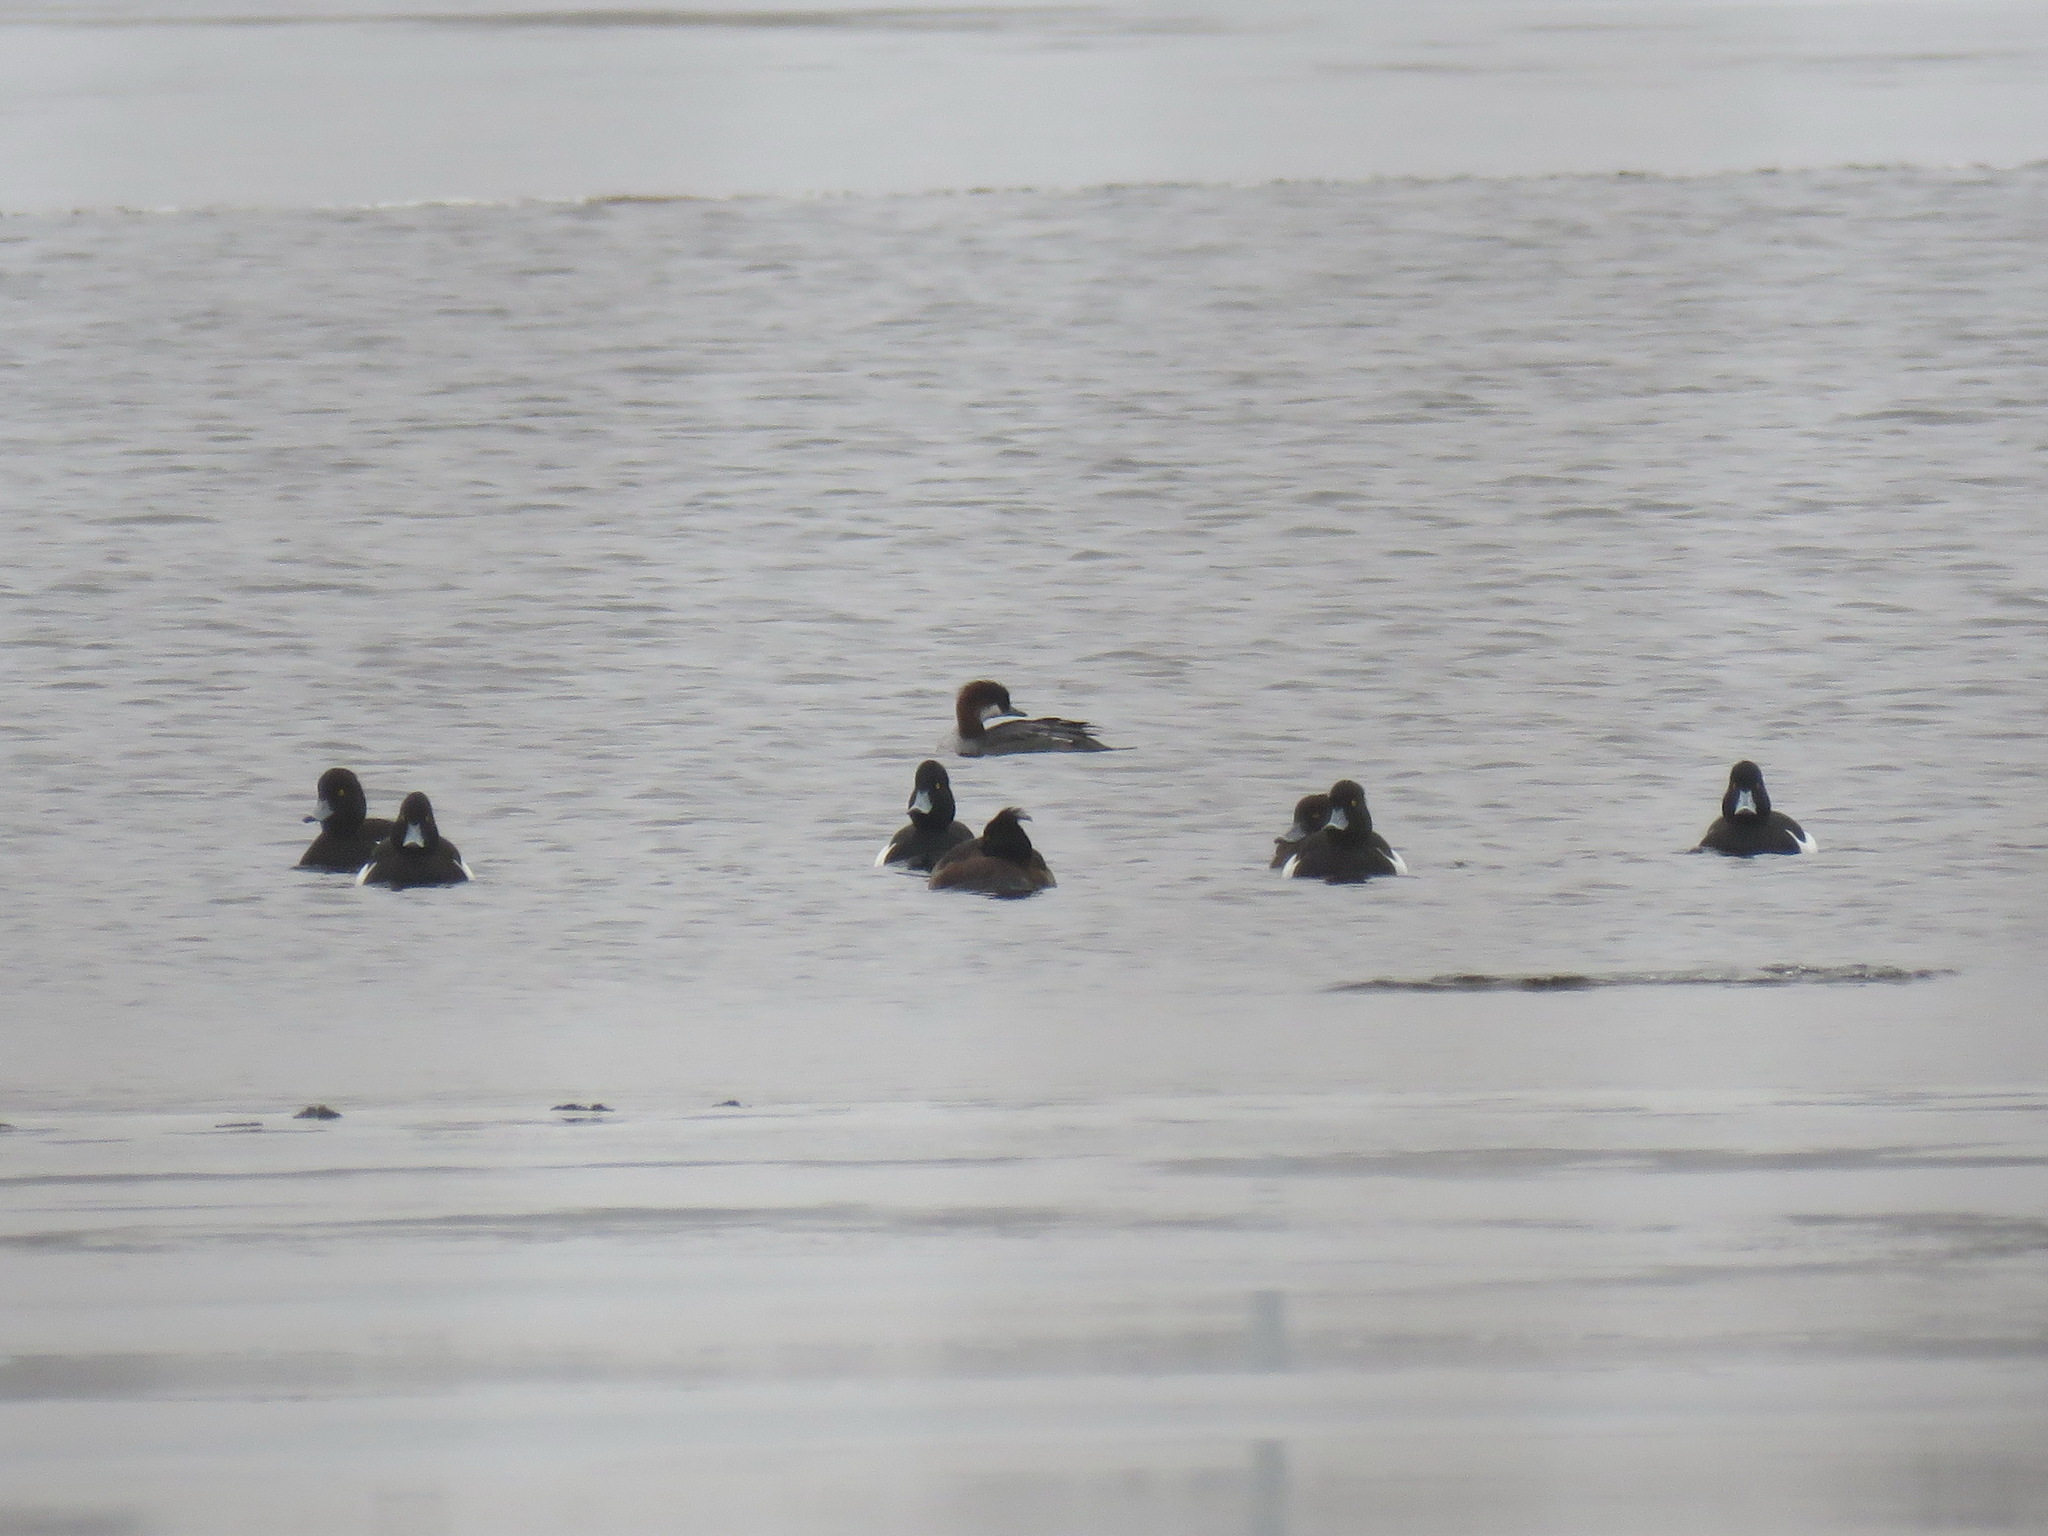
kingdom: Animalia
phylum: Chordata
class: Aves
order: Anseriformes
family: Anatidae
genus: Aythya
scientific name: Aythya fuligula
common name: Tufted duck
